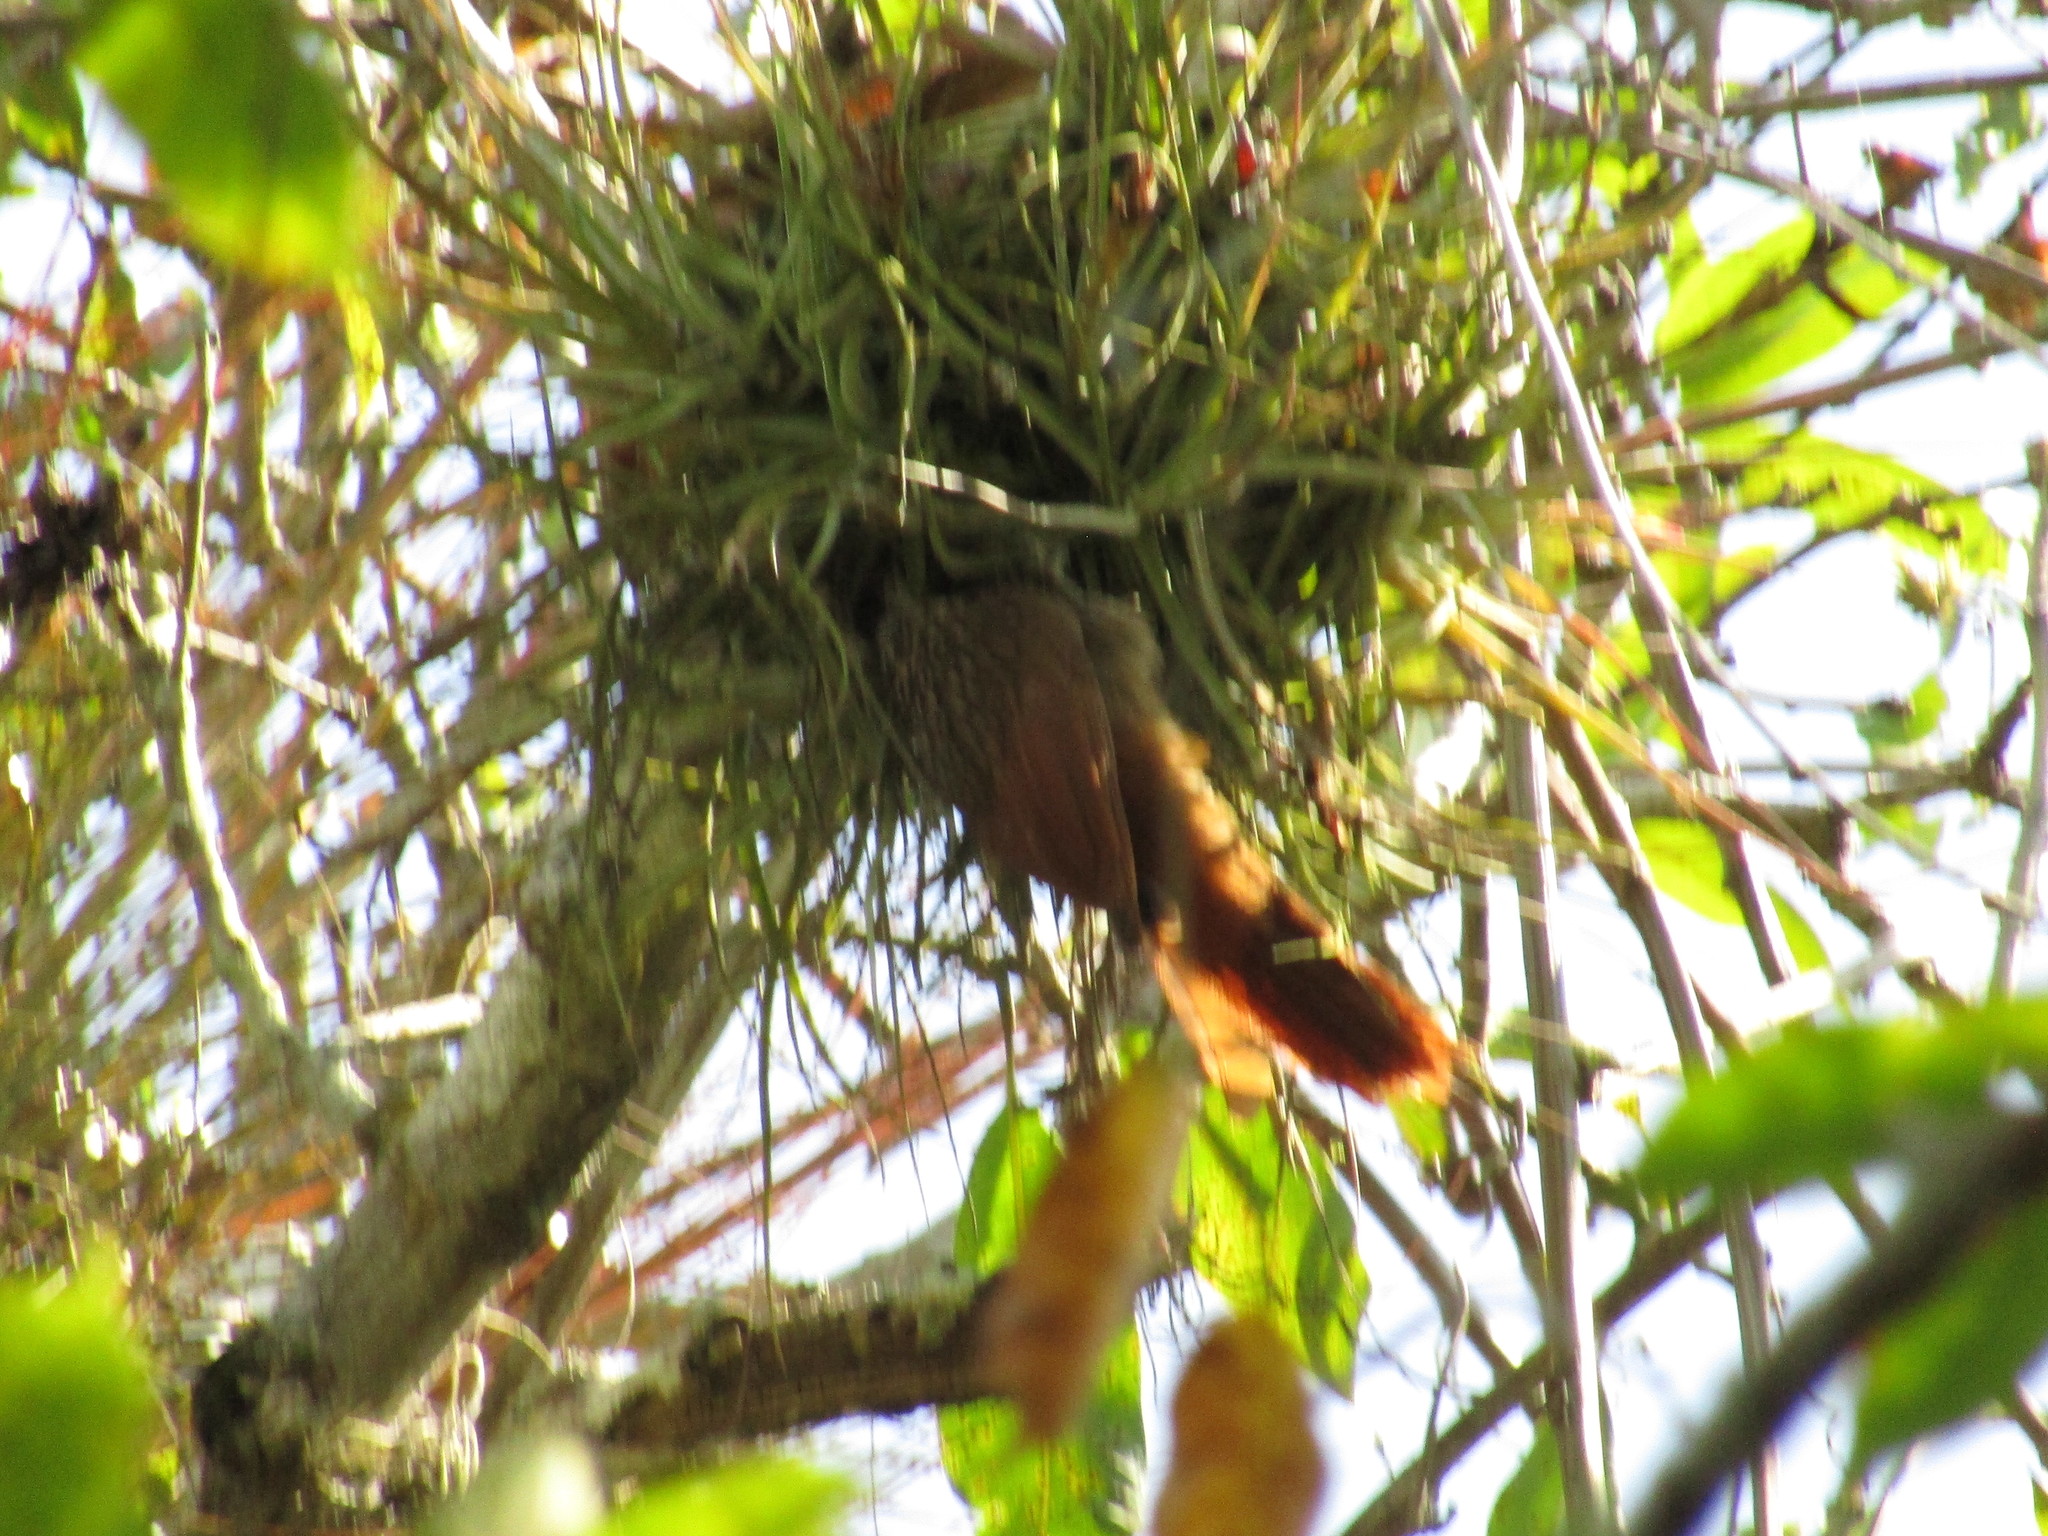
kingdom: Animalia
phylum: Chordata
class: Aves
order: Passeriformes
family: Furnariidae
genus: Xiphorhynchus
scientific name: Xiphorhynchus flavigaster
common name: Ivory-billed woodcreeper
